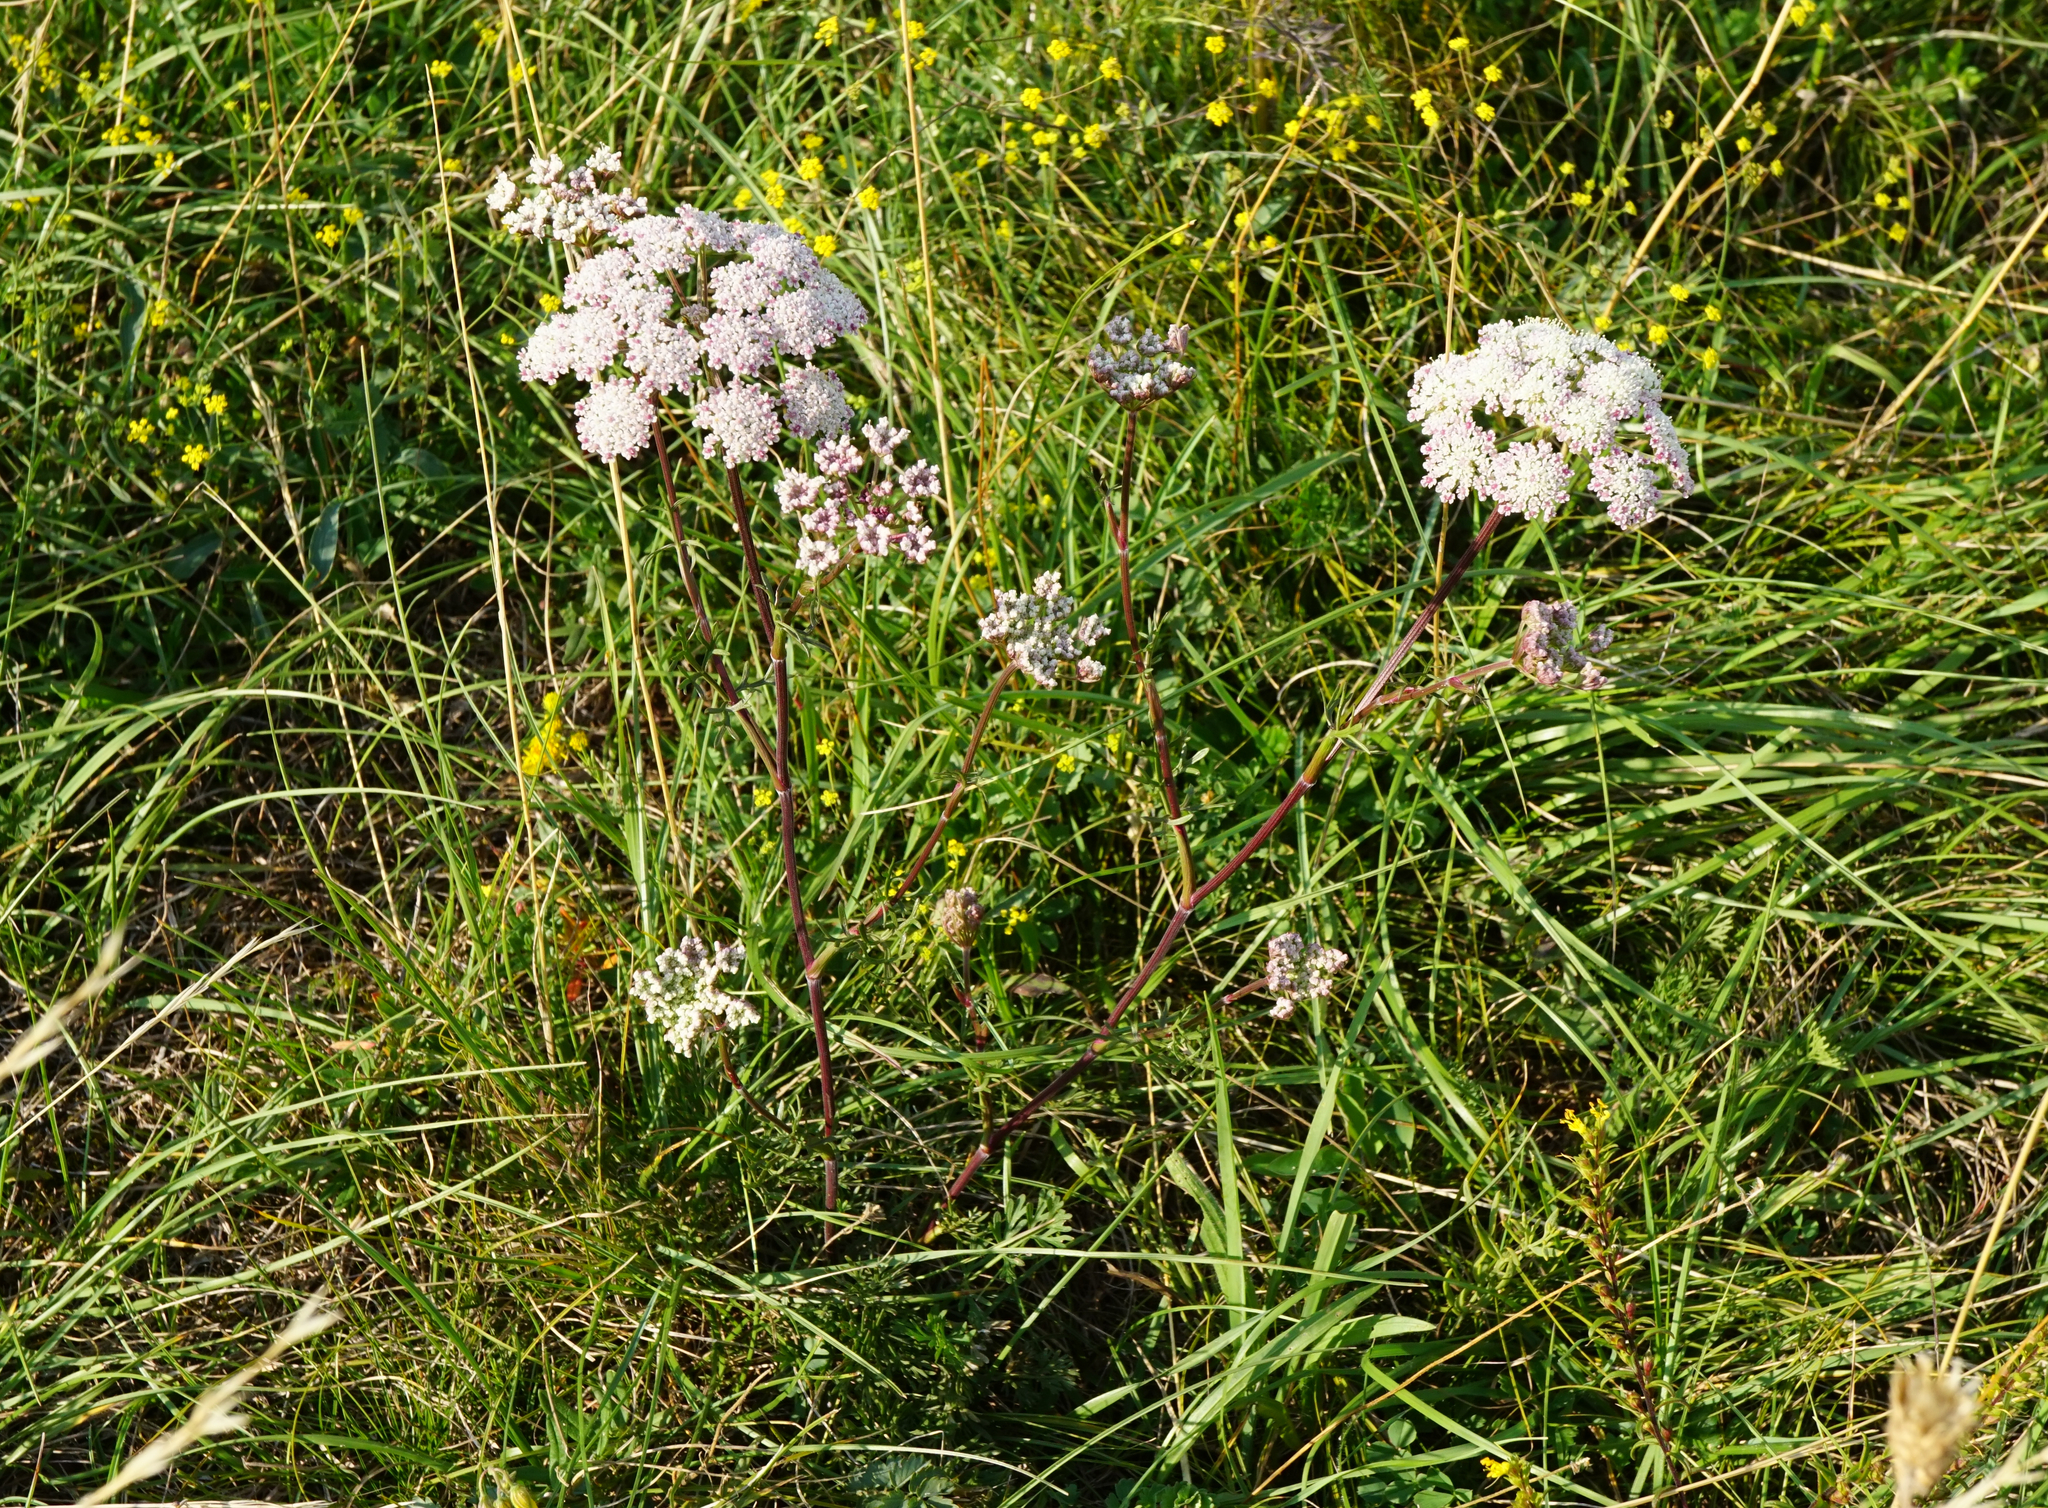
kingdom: Plantae
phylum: Tracheophyta
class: Magnoliopsida
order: Apiales
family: Apiaceae
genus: Seseli
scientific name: Seseli annuum
